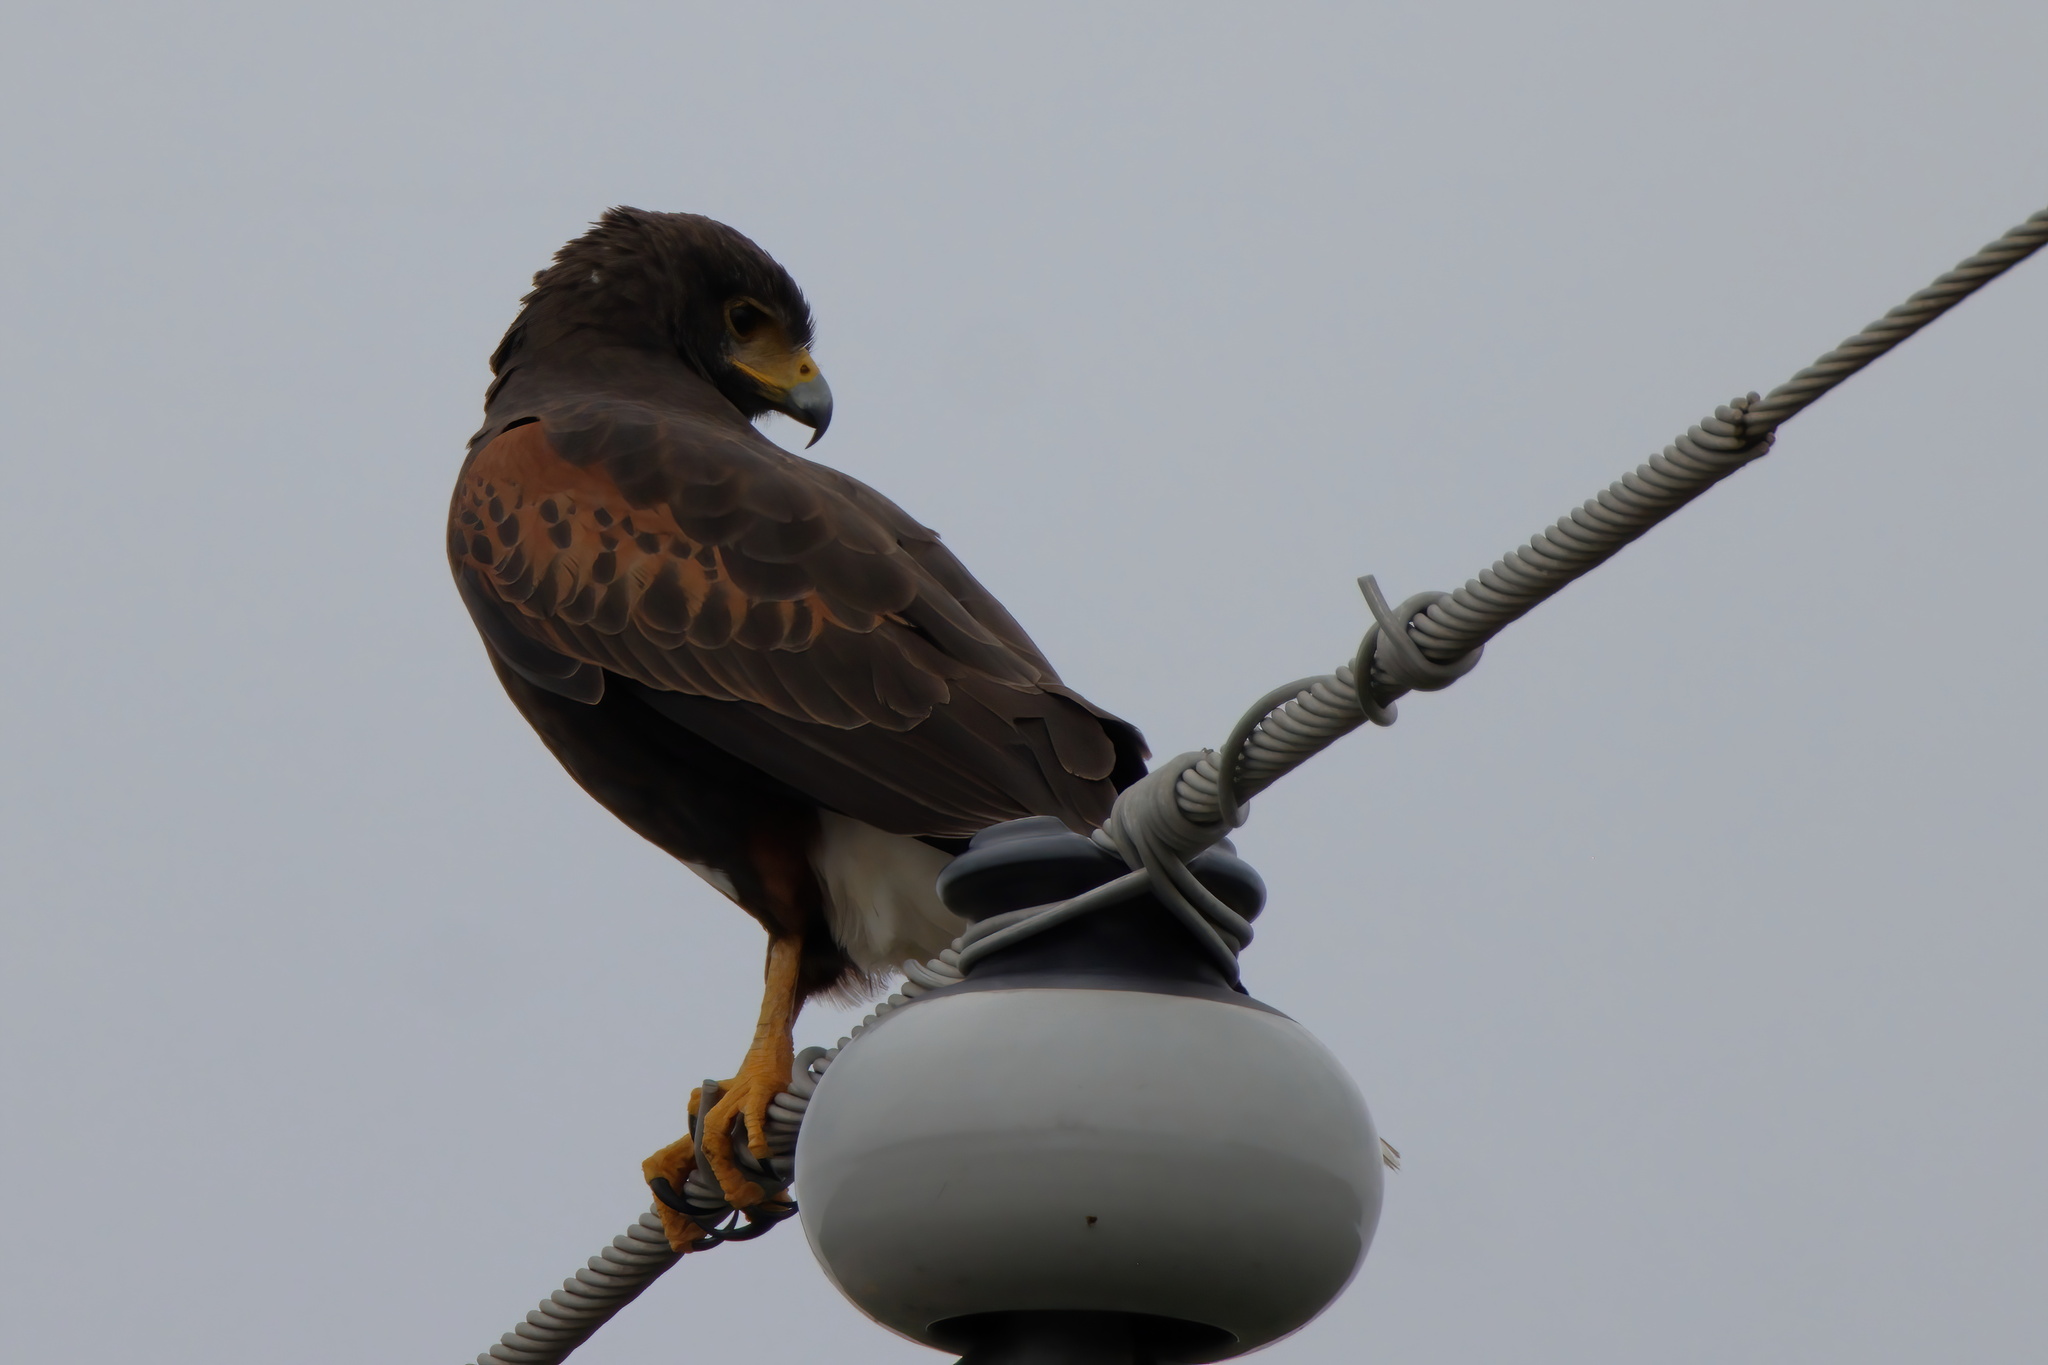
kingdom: Animalia
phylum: Chordata
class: Aves
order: Accipitriformes
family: Accipitridae
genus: Parabuteo
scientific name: Parabuteo unicinctus
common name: Harris's hawk
